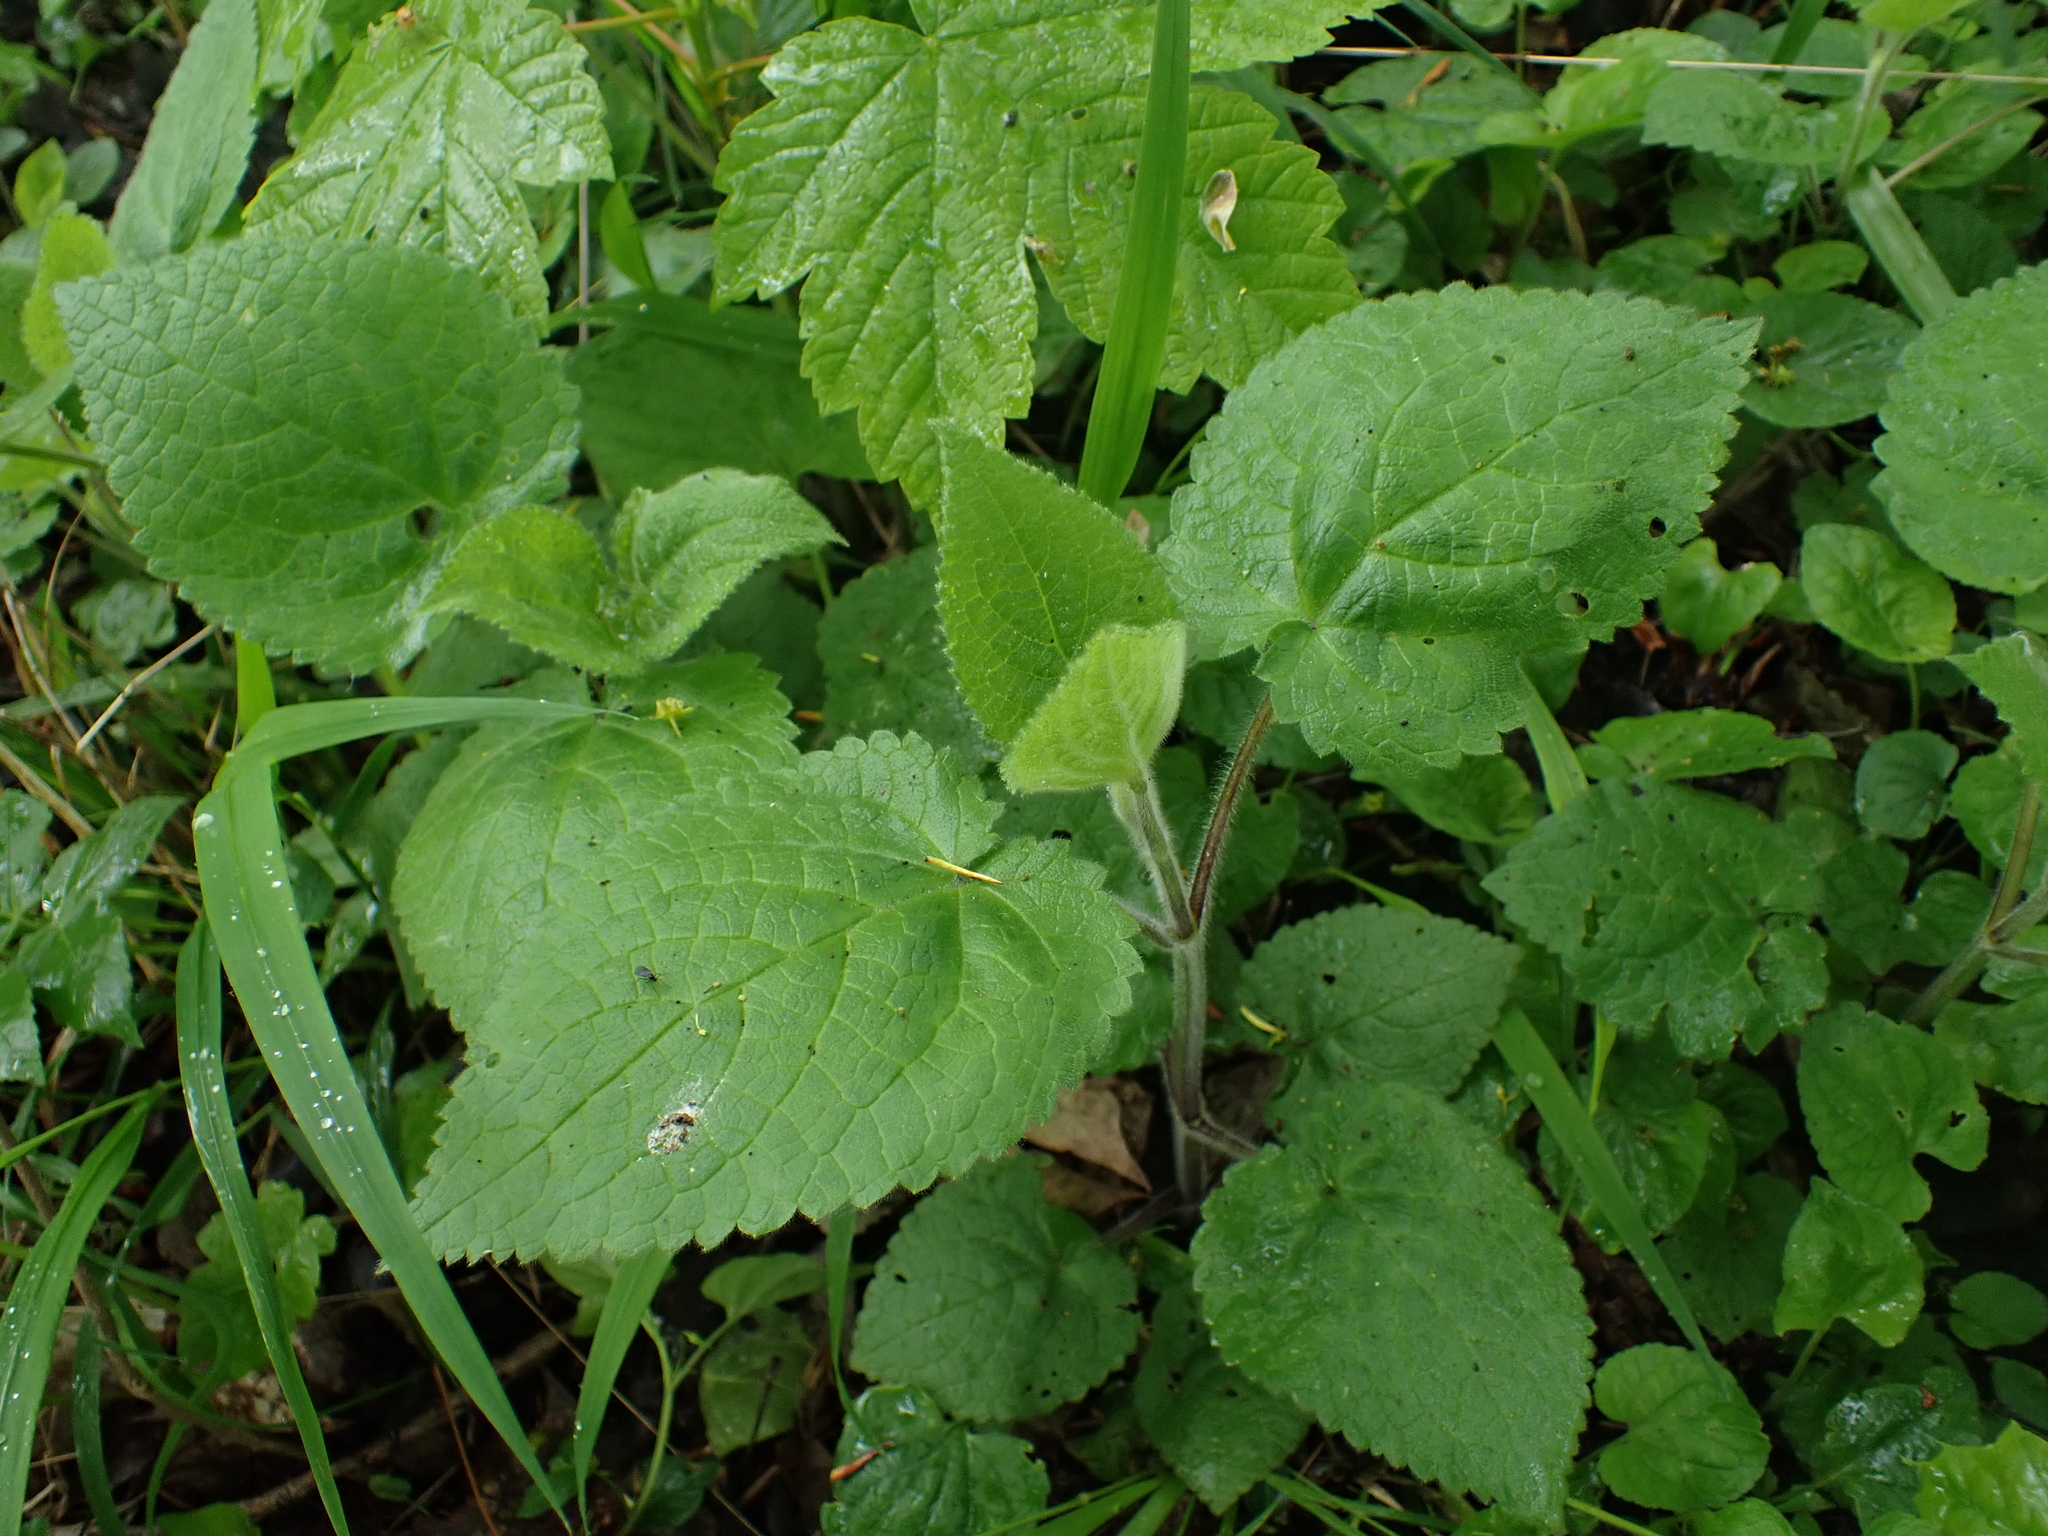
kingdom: Plantae
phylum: Tracheophyta
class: Magnoliopsida
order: Lamiales
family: Lamiaceae
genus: Stachys
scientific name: Stachys sylvatica
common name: Hedge woundwort
